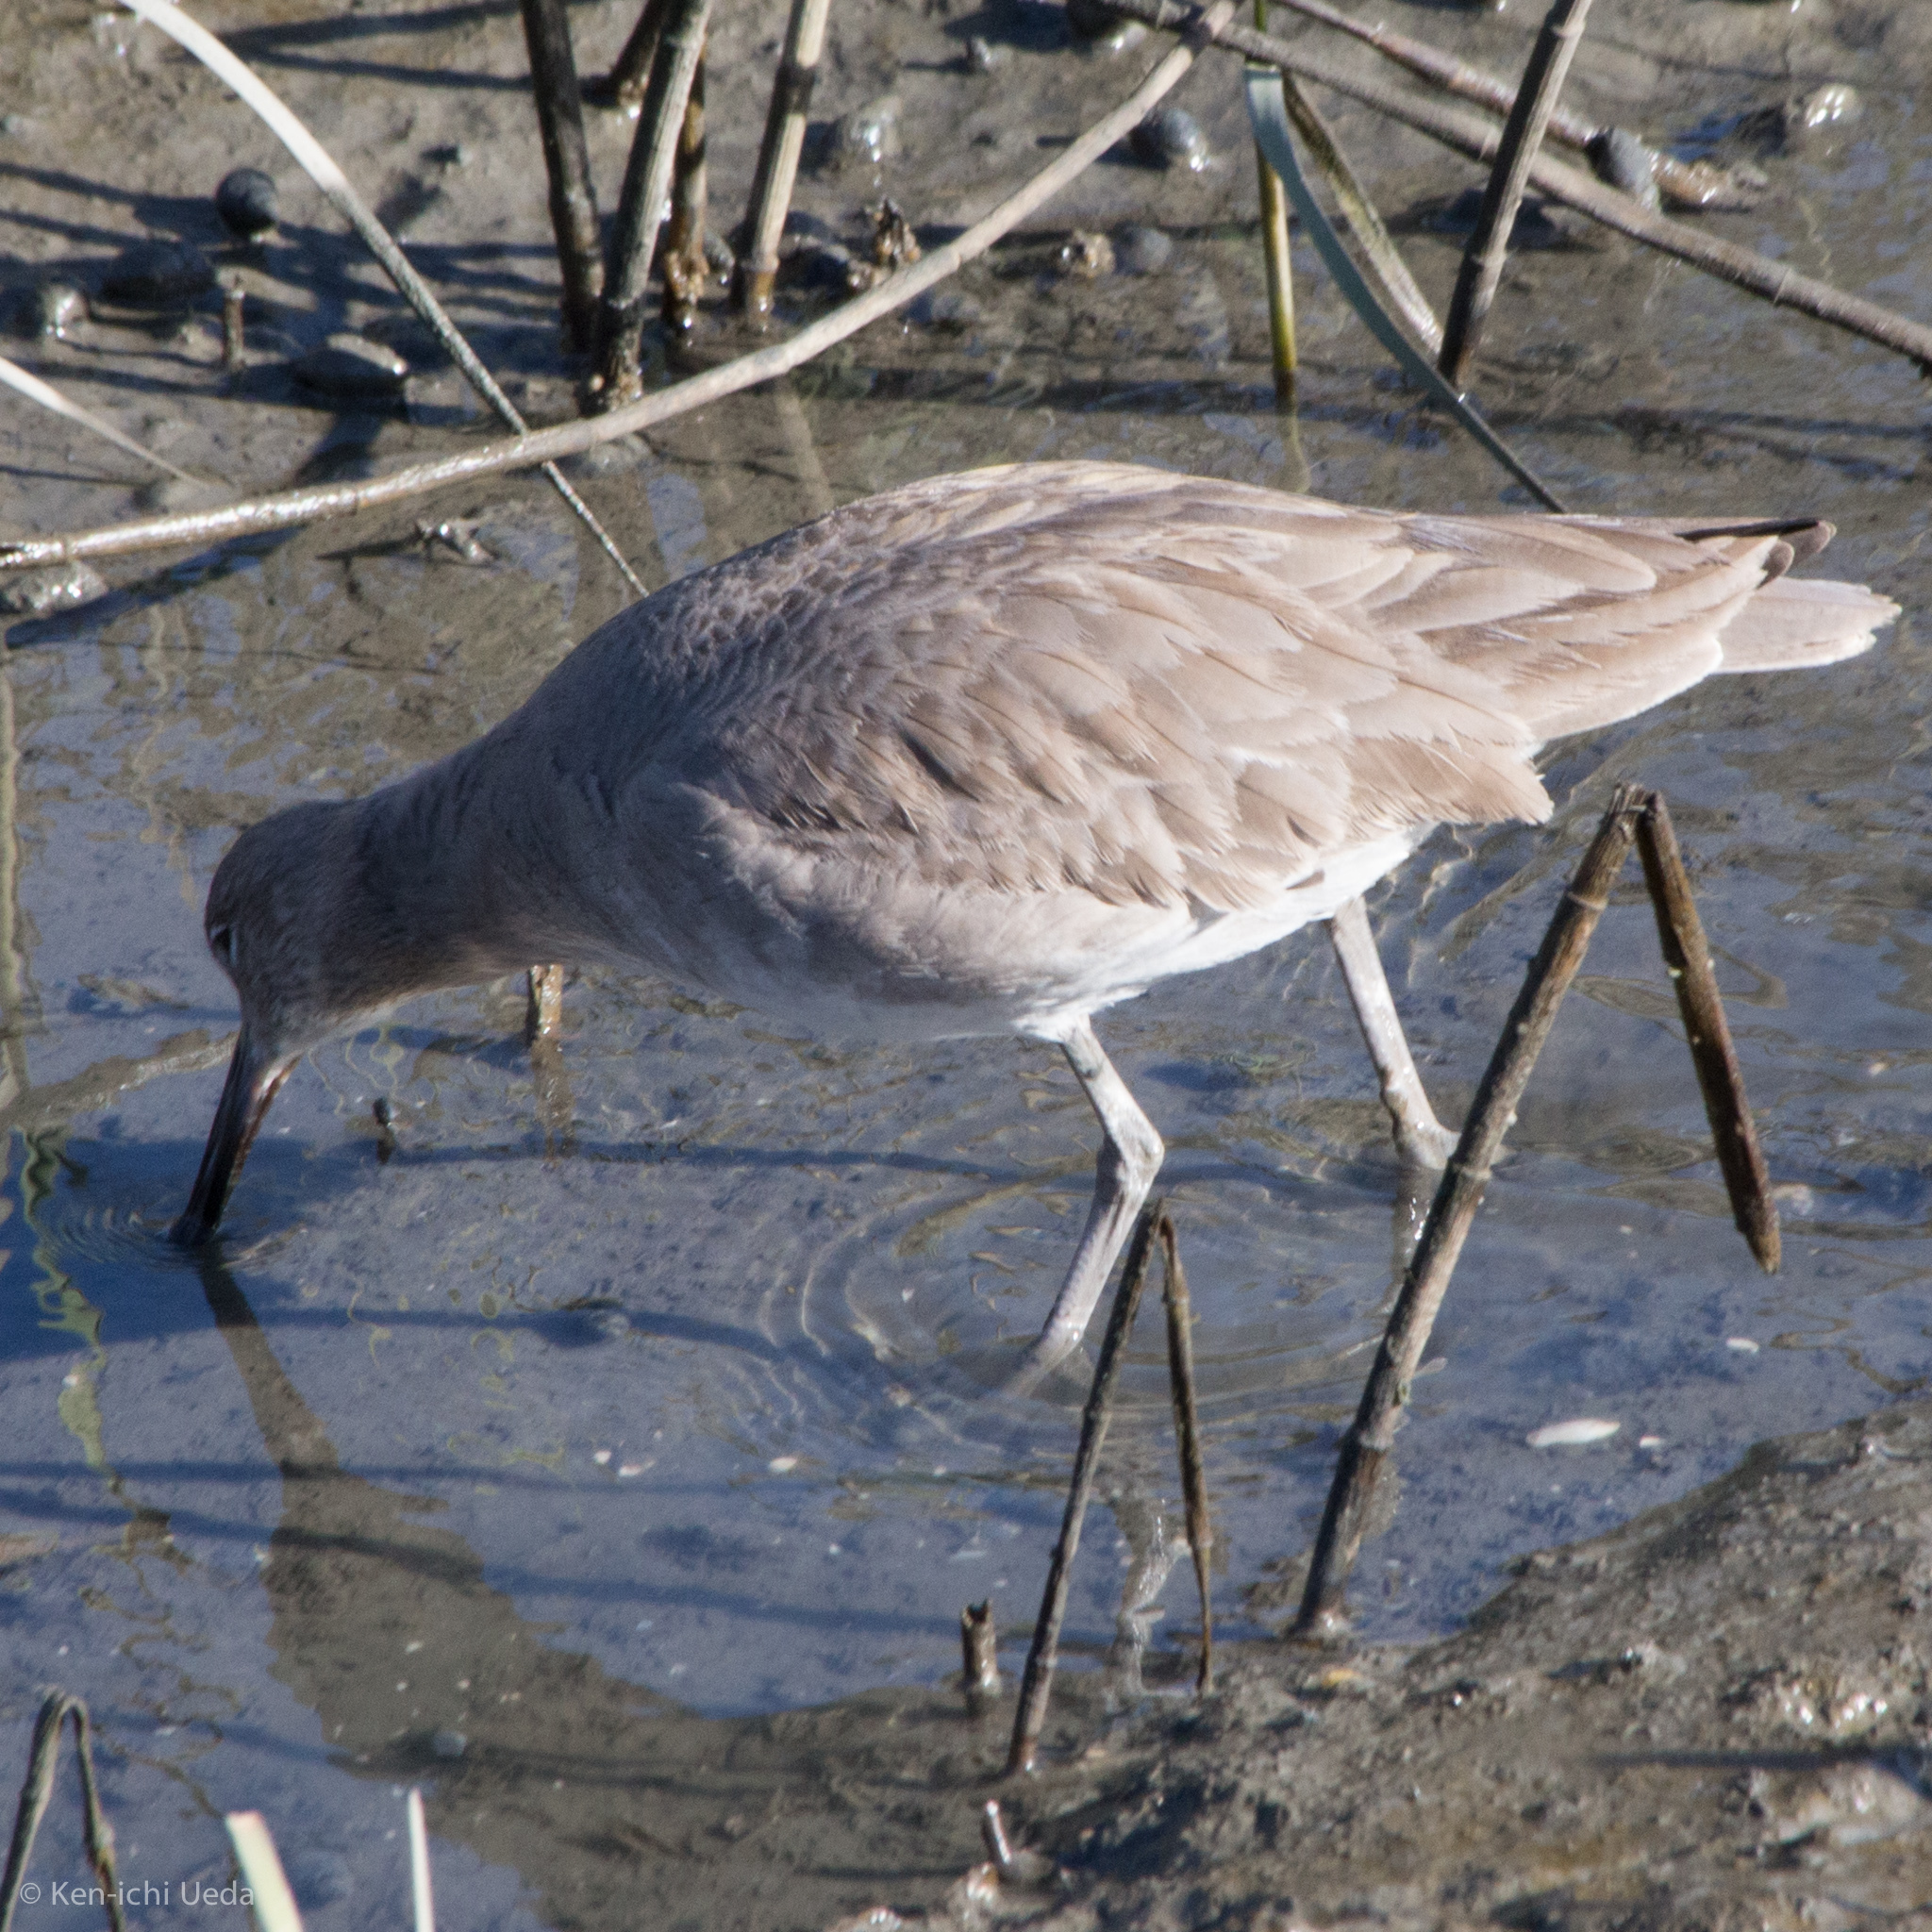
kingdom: Animalia
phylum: Chordata
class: Aves
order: Charadriiformes
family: Scolopacidae
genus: Tringa
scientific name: Tringa semipalmata
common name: Willet
